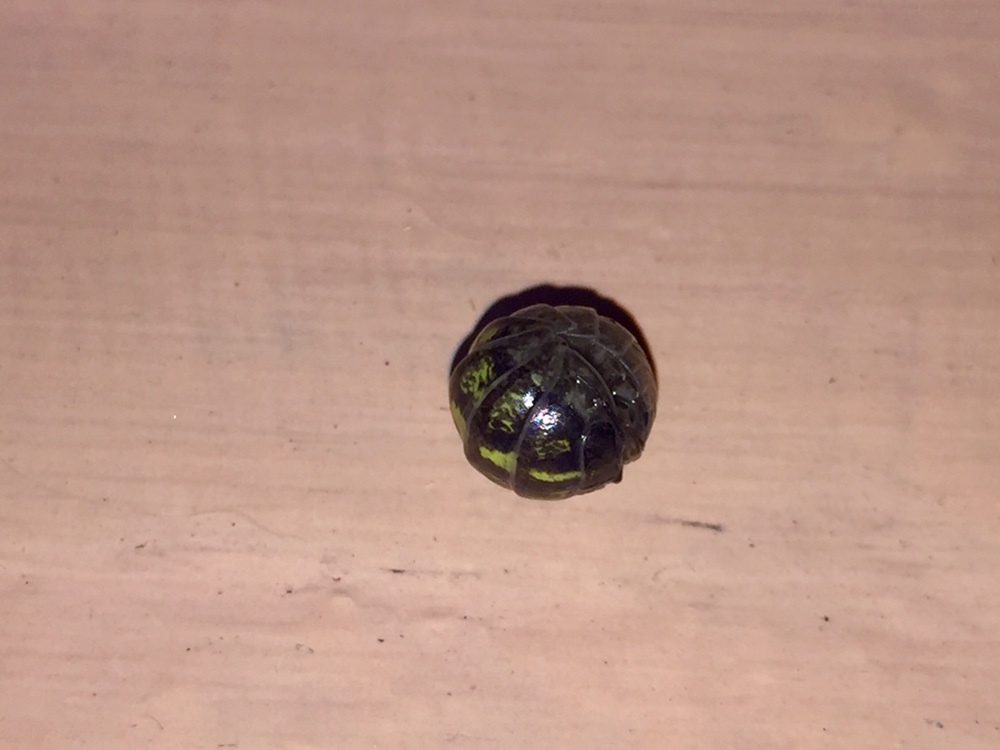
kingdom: Animalia
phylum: Arthropoda
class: Malacostraca
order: Isopoda
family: Armadillidiidae
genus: Armadillidium
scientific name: Armadillidium vulgare
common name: Common pill woodlouse
